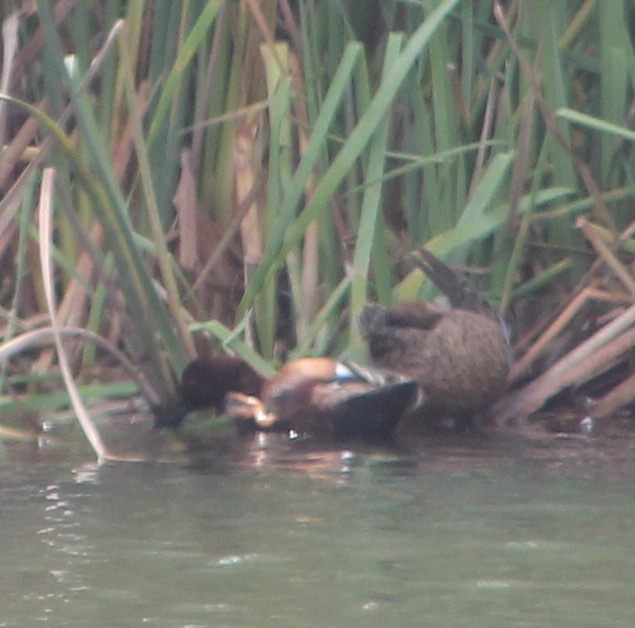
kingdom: Animalia
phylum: Chordata
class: Aves
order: Anseriformes
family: Anatidae
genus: Spatula
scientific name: Spatula cyanoptera
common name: Cinnamon teal
